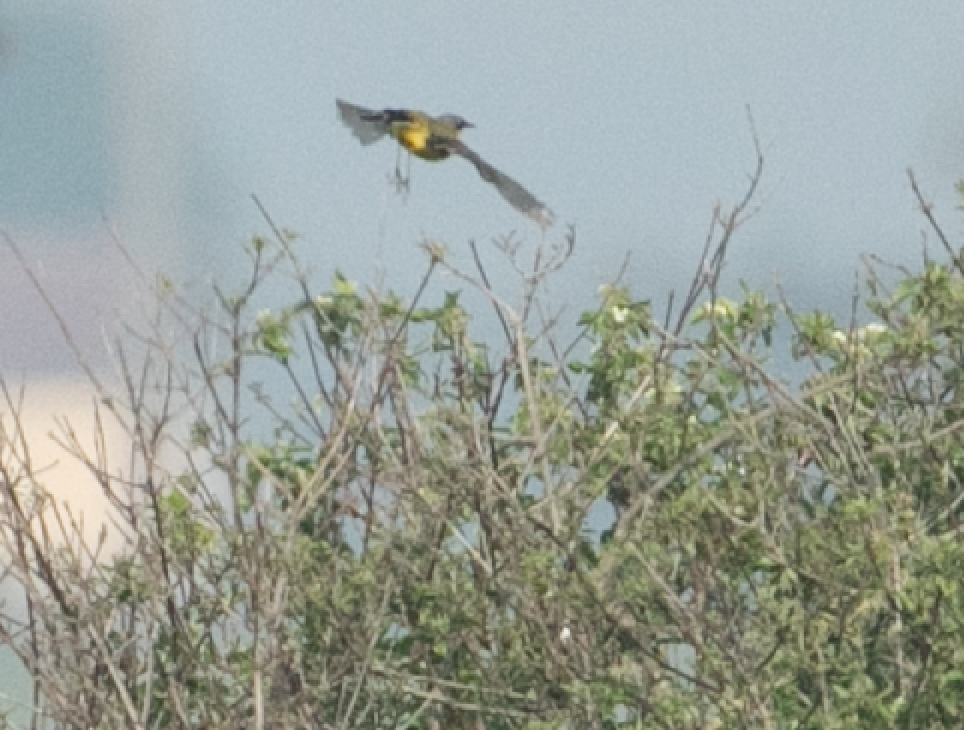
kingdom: Animalia
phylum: Chordata
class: Aves
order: Passeriformes
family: Motacillidae
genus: Motacilla
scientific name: Motacilla flava
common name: Western yellow wagtail
